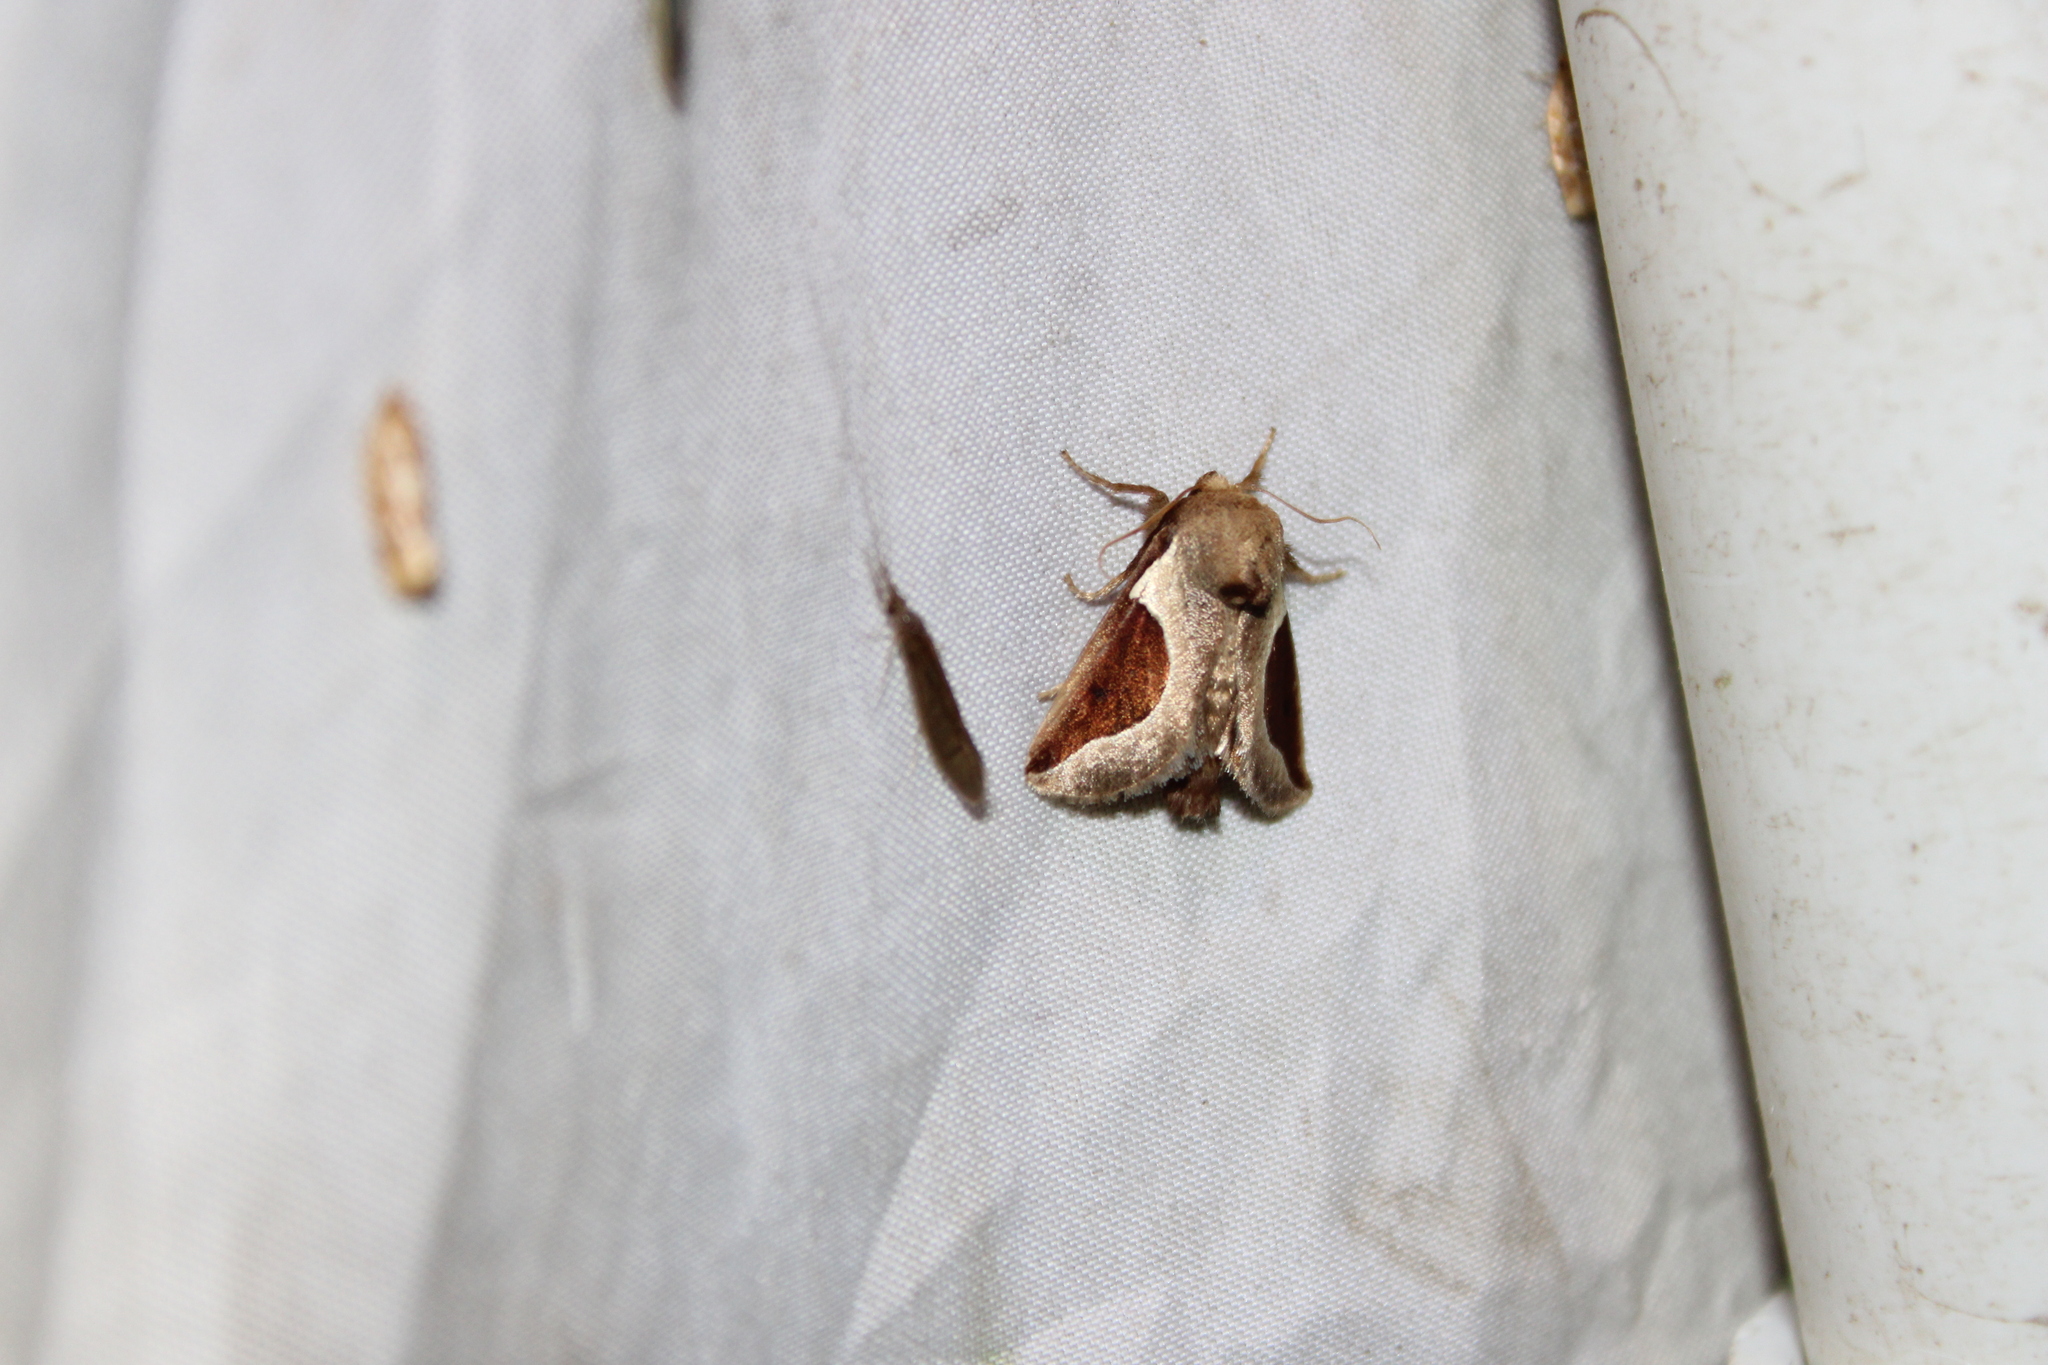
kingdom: Animalia
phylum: Arthropoda
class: Insecta
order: Lepidoptera
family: Limacodidae
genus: Prolimacodes
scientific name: Prolimacodes badia
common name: Skiff moth
